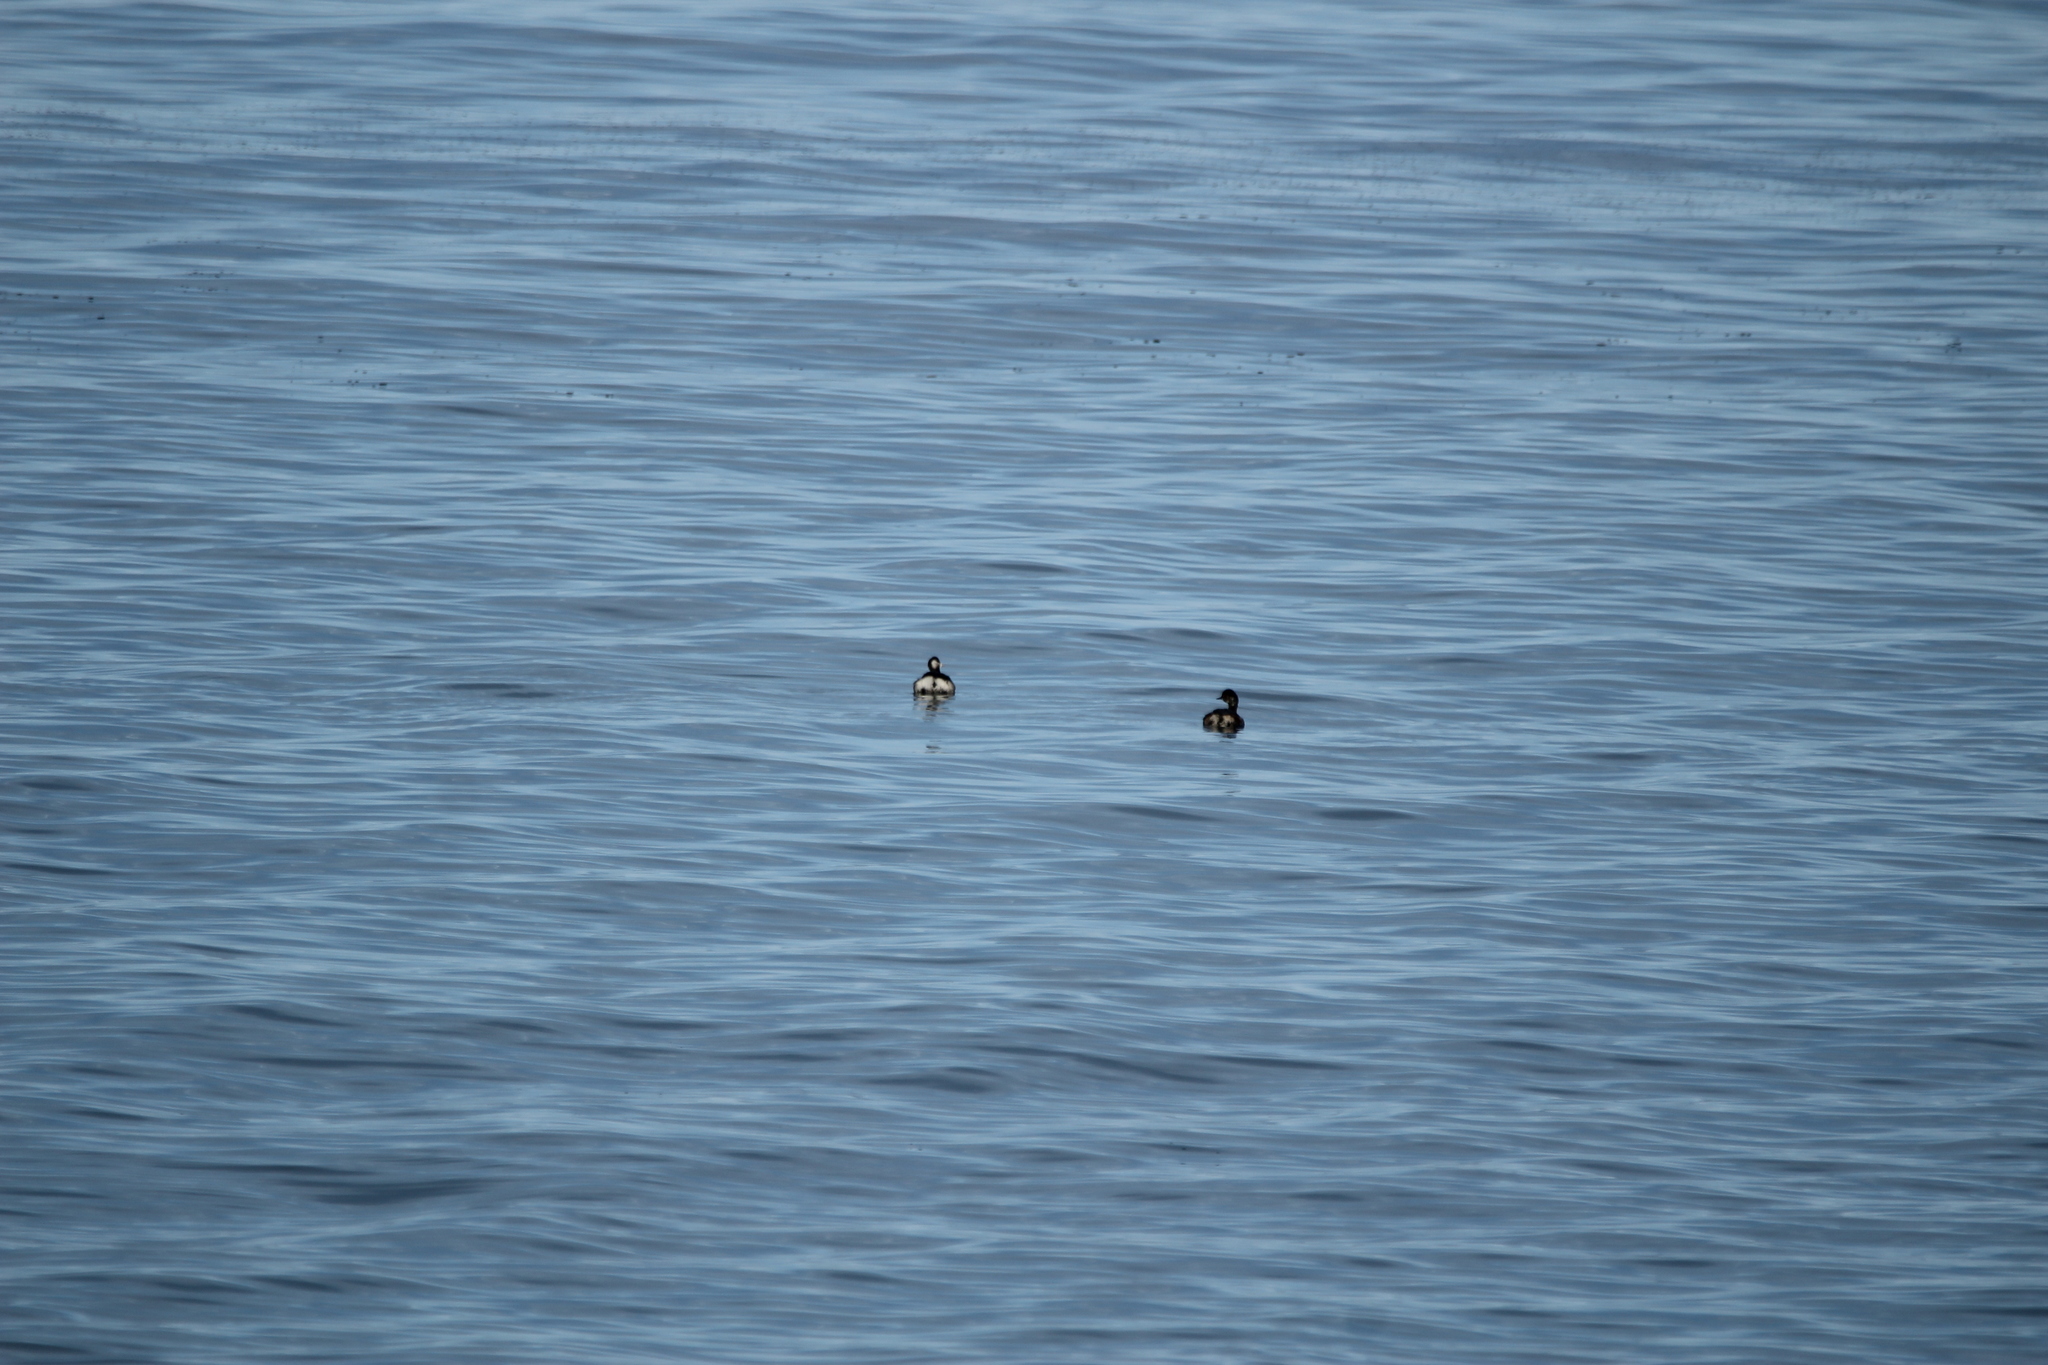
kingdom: Animalia
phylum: Chordata
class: Aves
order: Podicipediformes
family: Podicipedidae
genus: Podiceps
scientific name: Podiceps nigricollis
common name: Black-necked grebe
